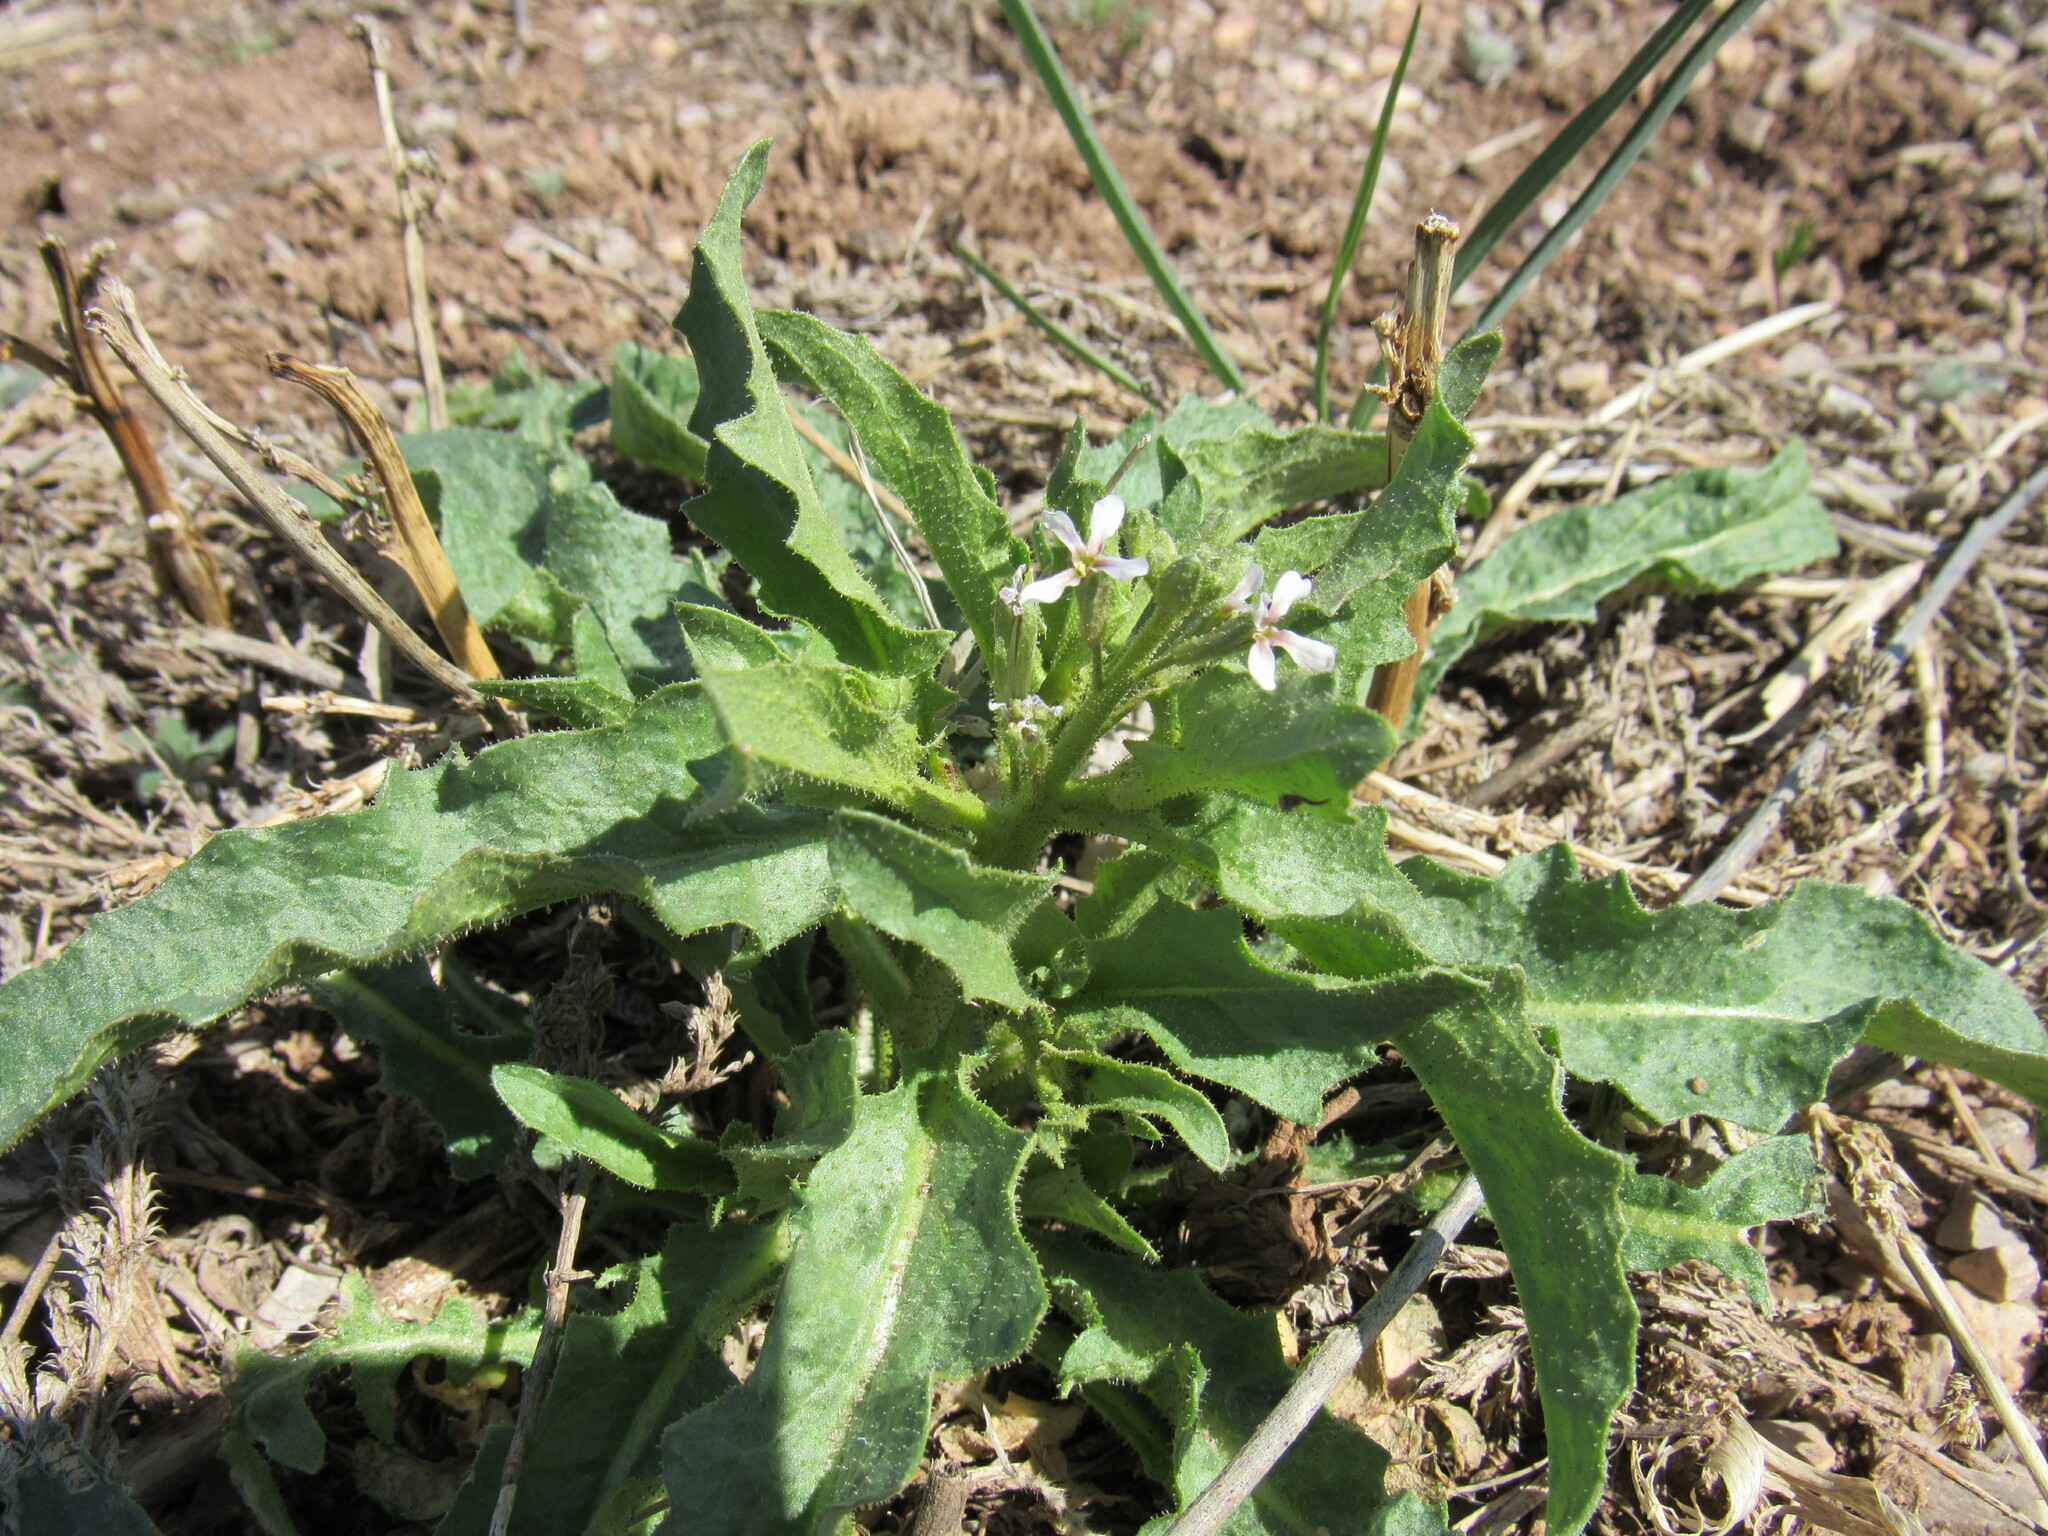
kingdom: Plantae
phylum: Tracheophyta
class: Magnoliopsida
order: Brassicales
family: Brassicaceae
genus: Chorispora
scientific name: Chorispora tenella
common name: Crossflower
